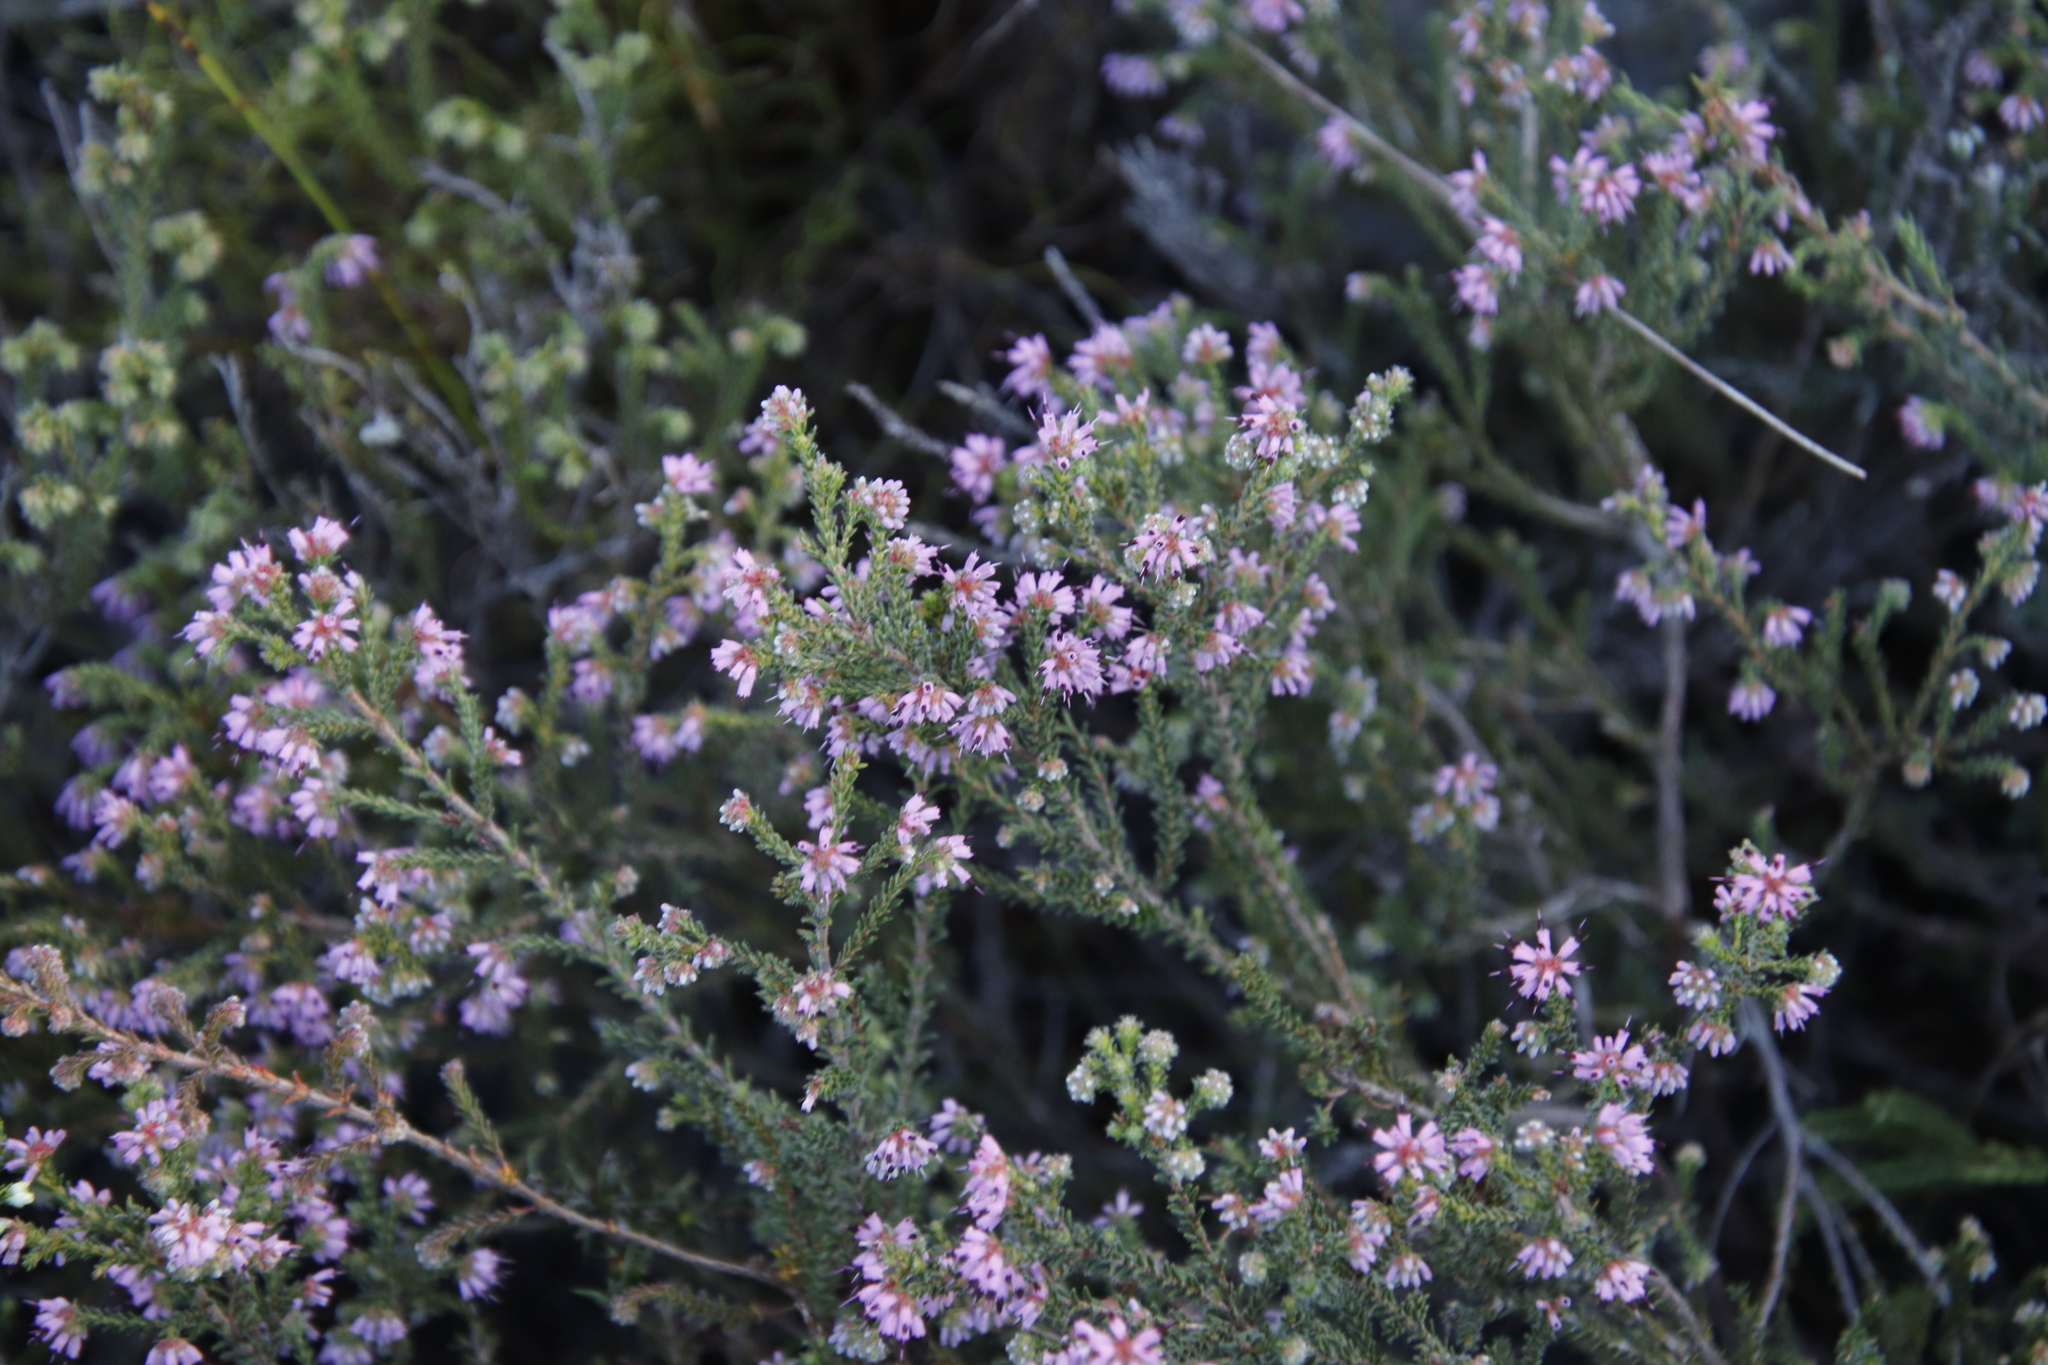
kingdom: Plantae
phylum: Tracheophyta
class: Magnoliopsida
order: Ericales
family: Ericaceae
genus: Erica
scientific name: Erica glabella
